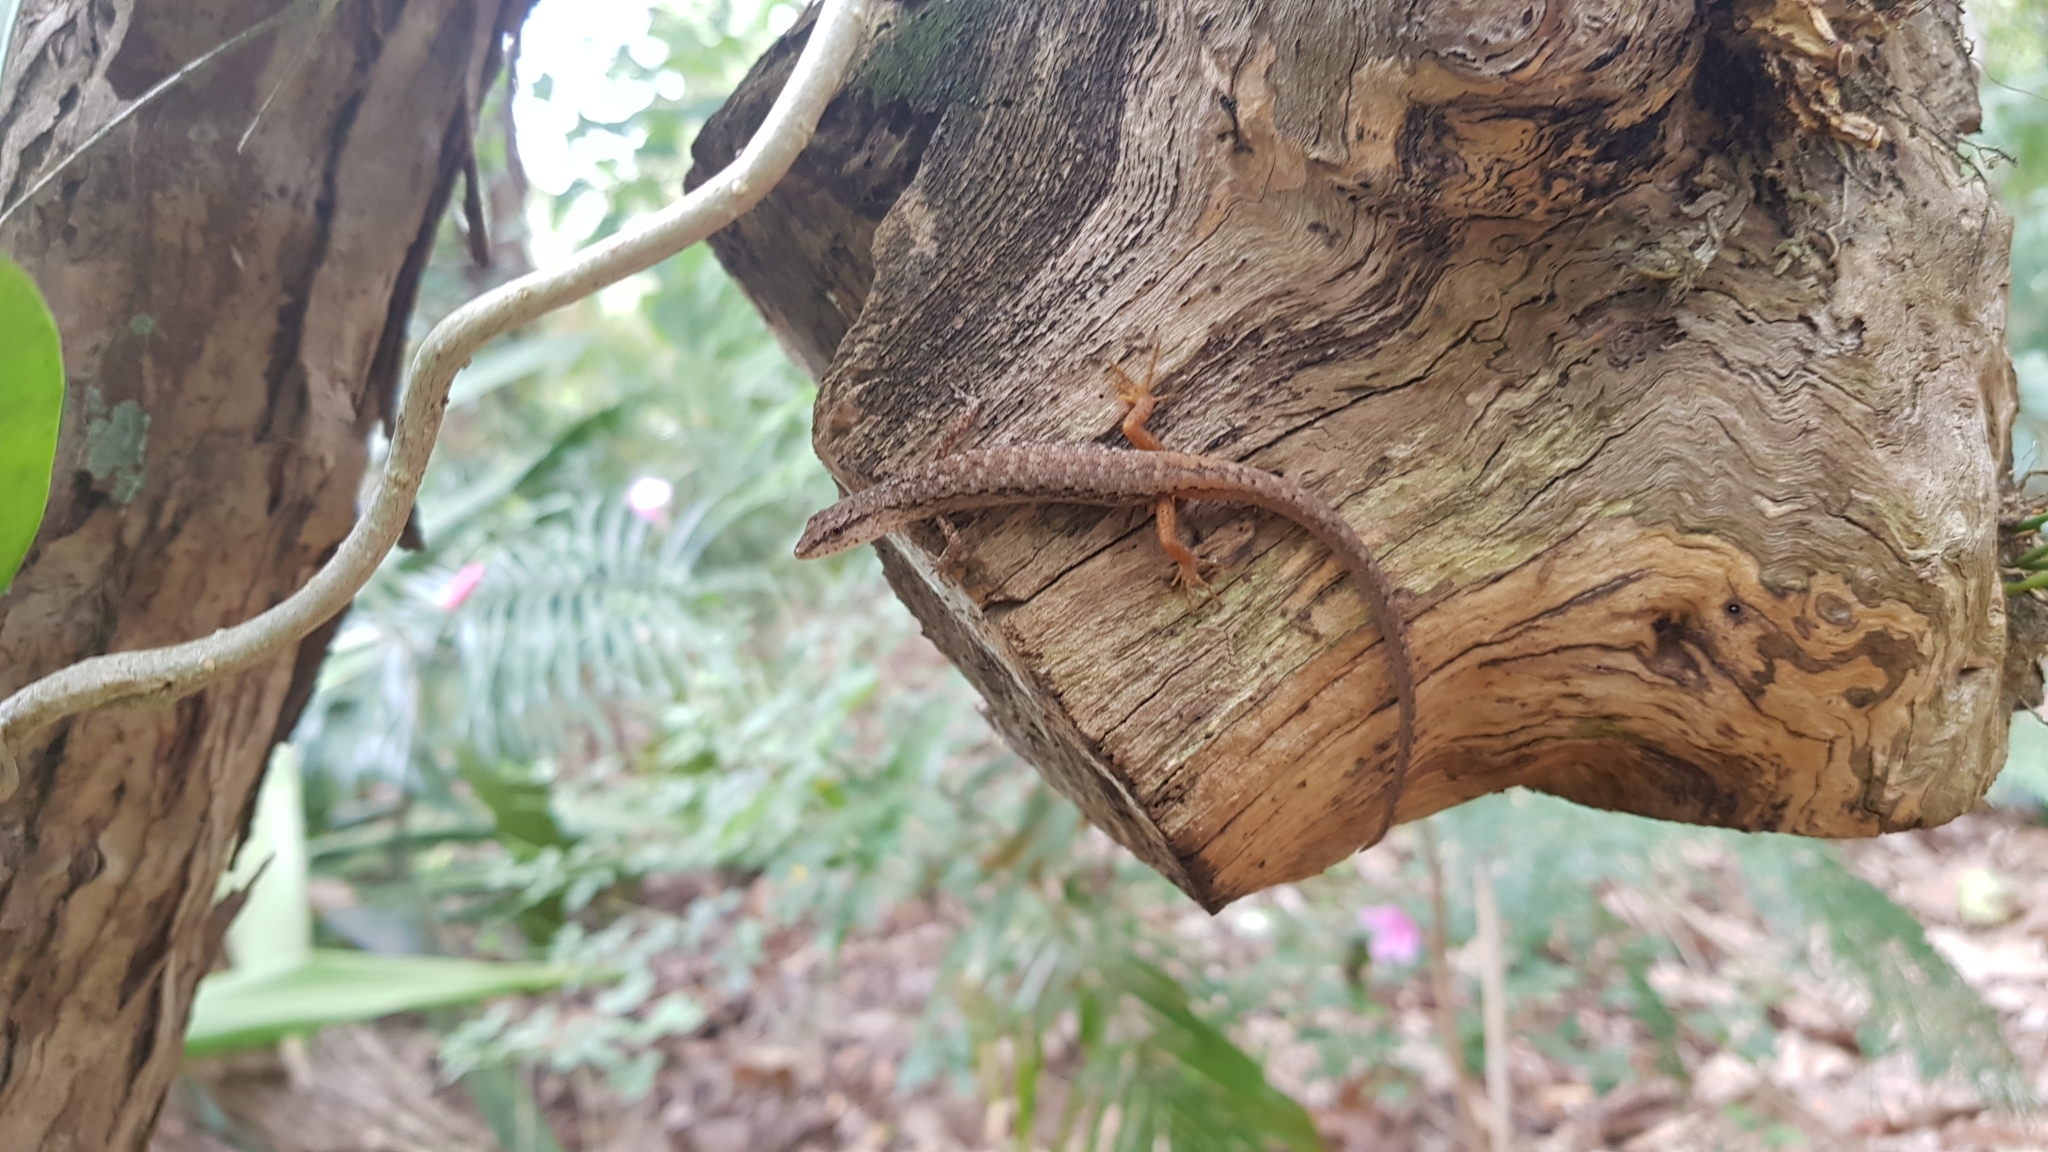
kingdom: Animalia
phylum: Chordata
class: Squamata
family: Scincidae
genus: Saproscincus
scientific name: Saproscincus spectabilis
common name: Gully shadeskink
